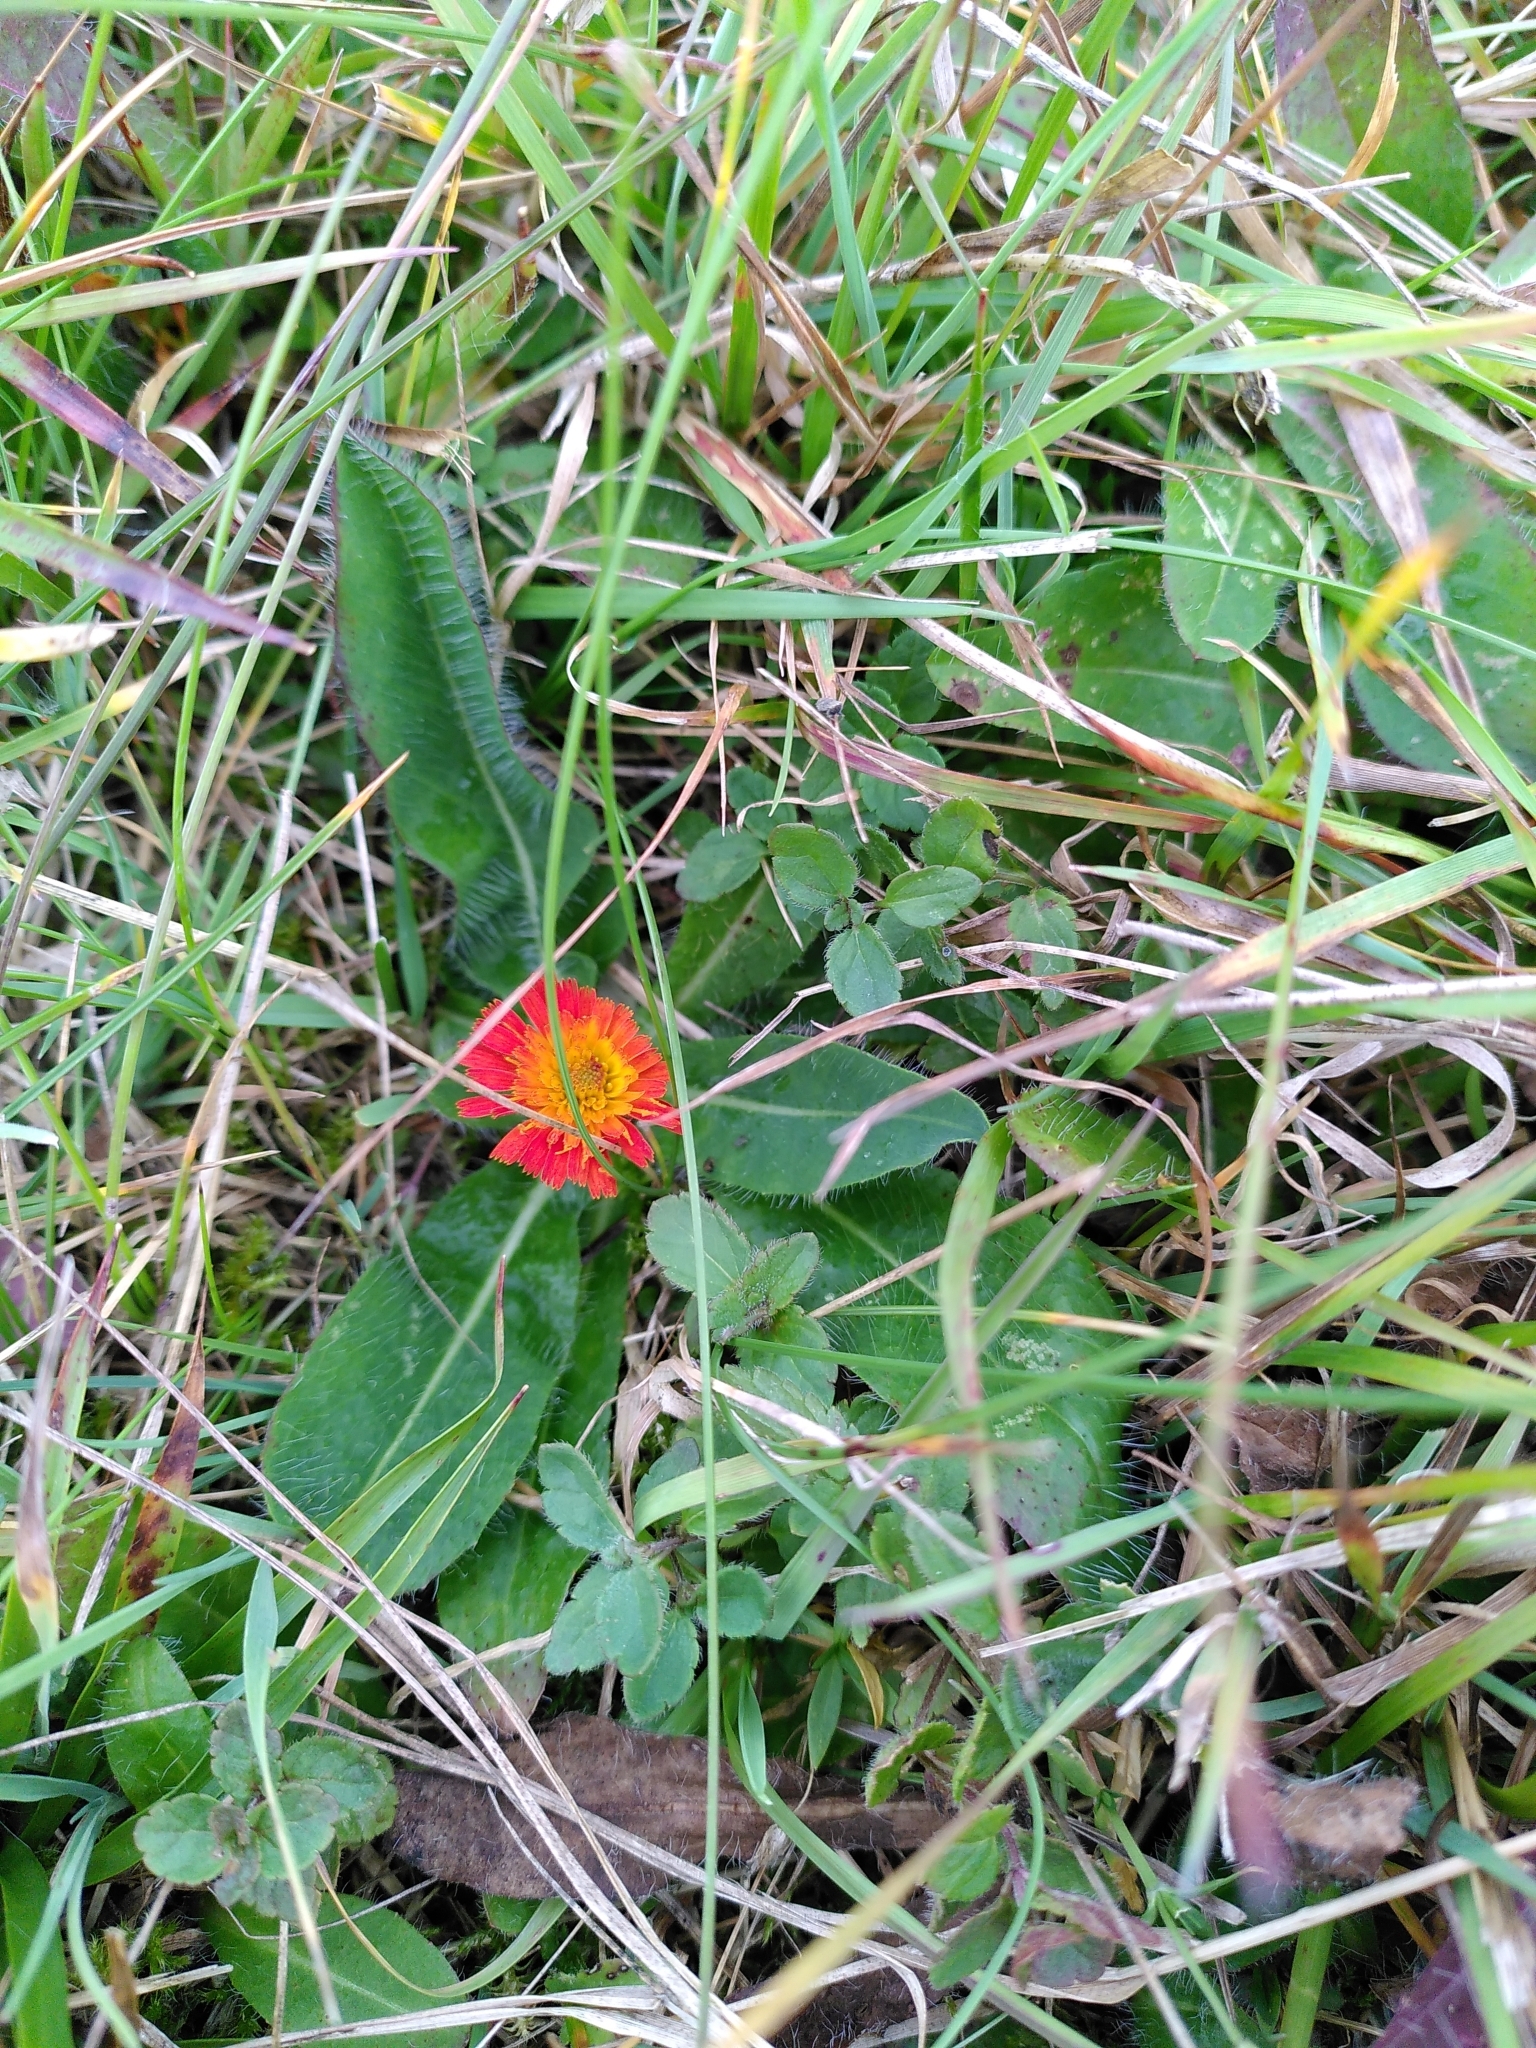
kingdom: Plantae
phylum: Tracheophyta
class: Magnoliopsida
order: Asterales
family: Asteraceae
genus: Pilosella
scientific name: Pilosella aurantiaca
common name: Fox-and-cubs
